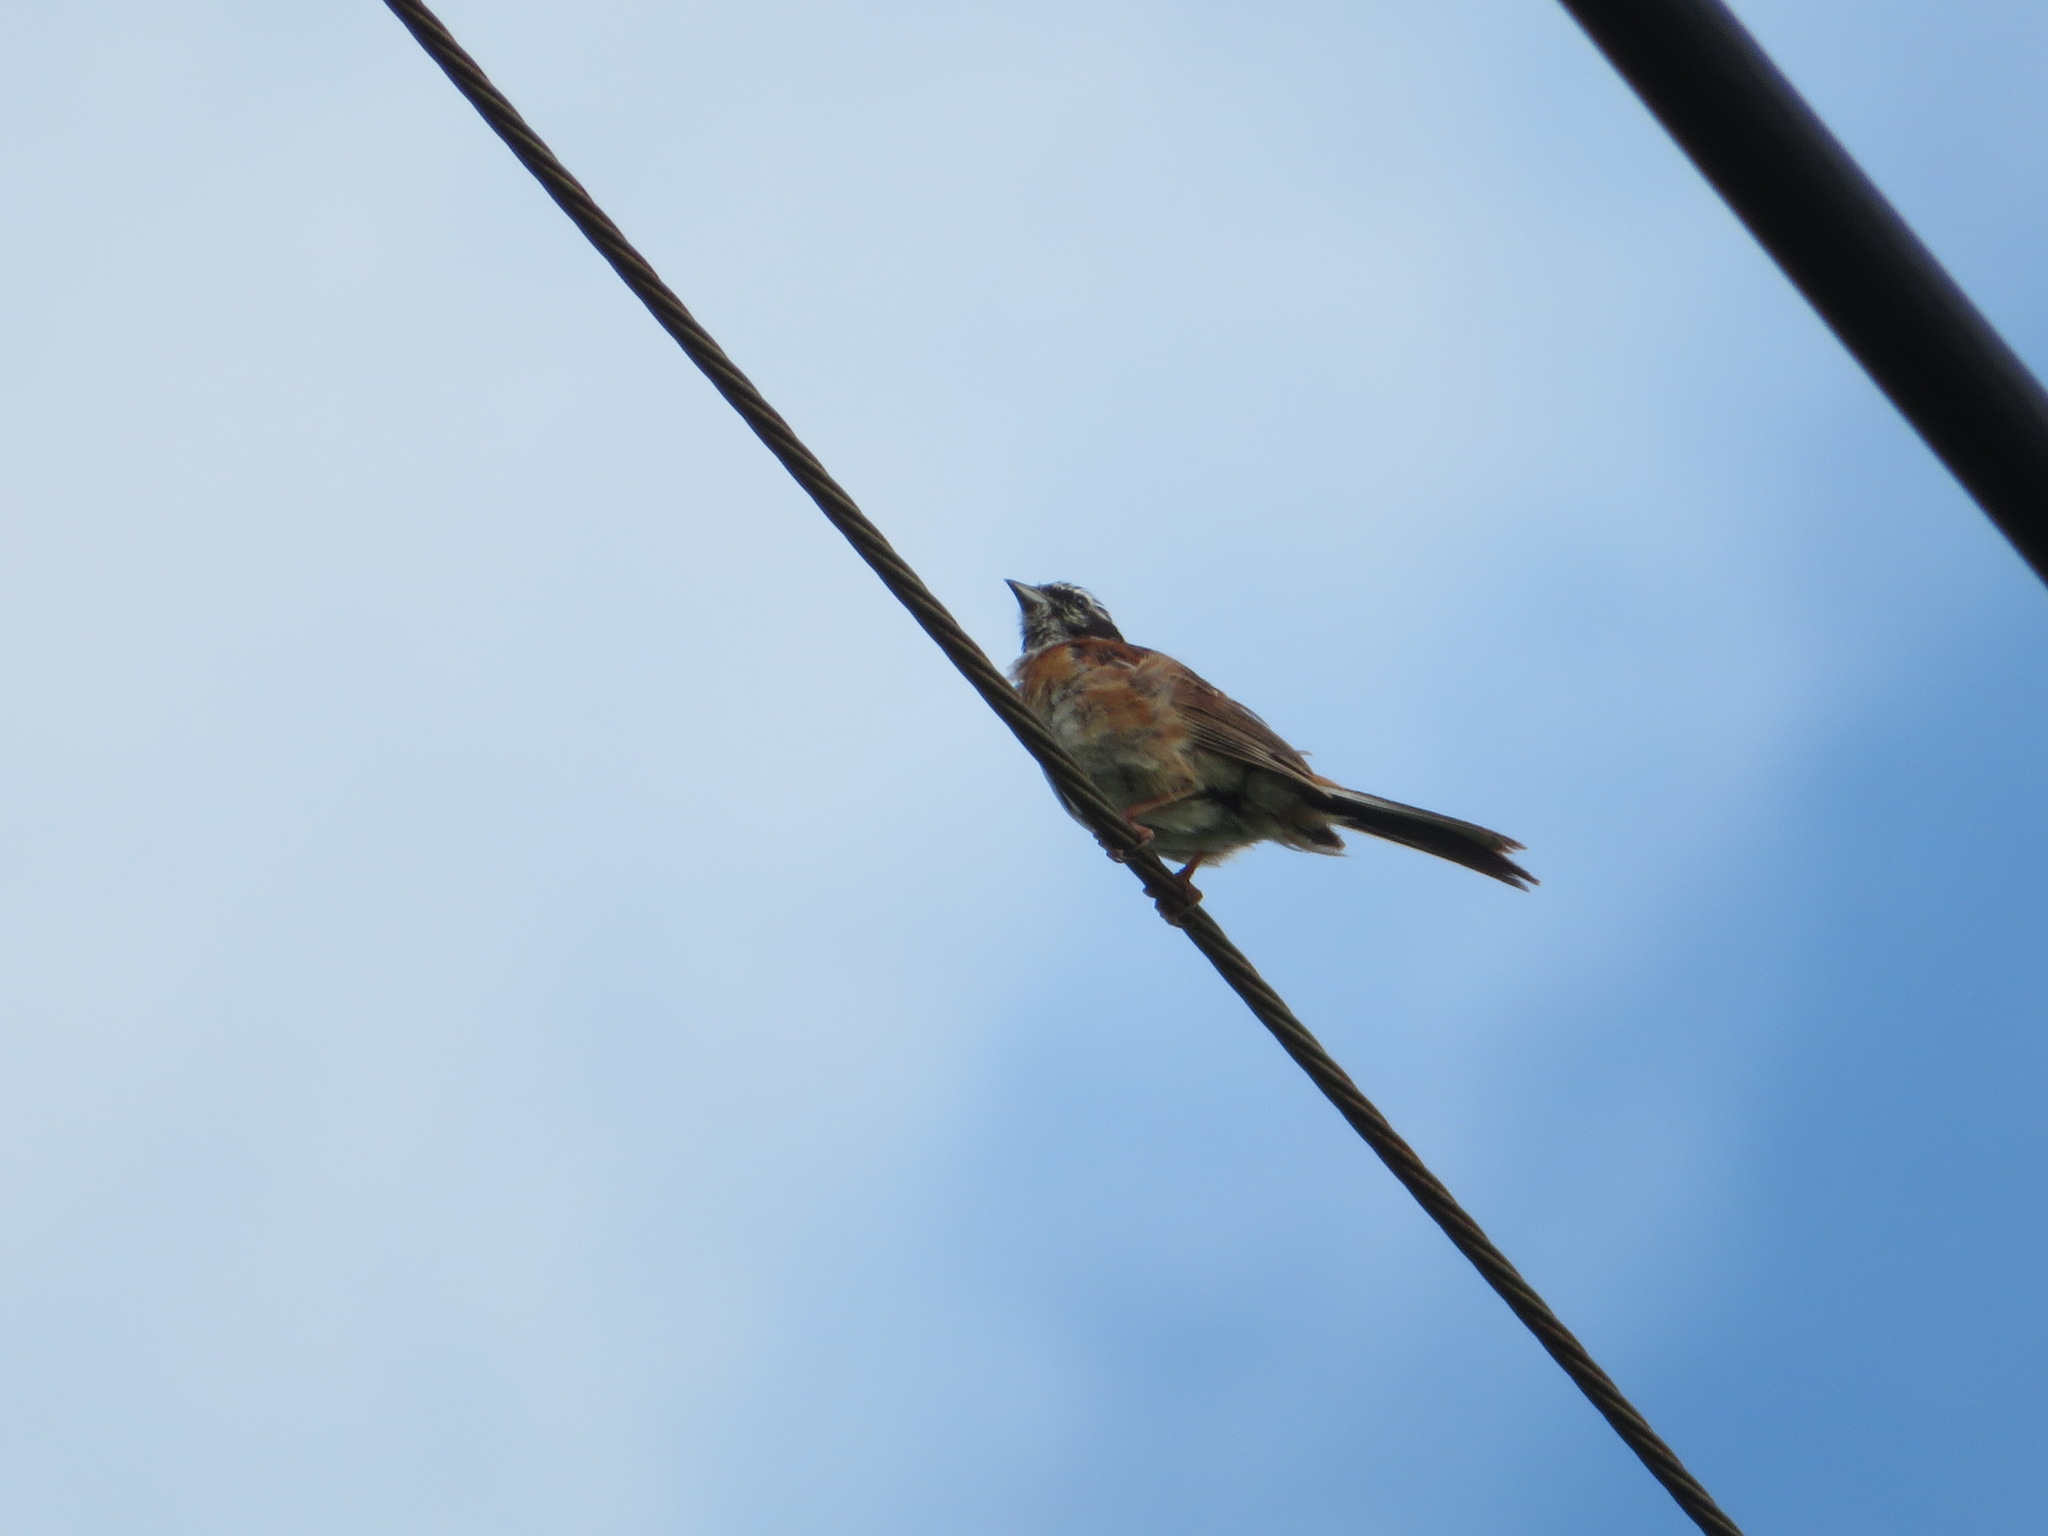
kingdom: Animalia
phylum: Chordata
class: Aves
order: Passeriformes
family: Emberizidae
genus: Emberiza
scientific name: Emberiza cioides
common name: Meadow bunting
